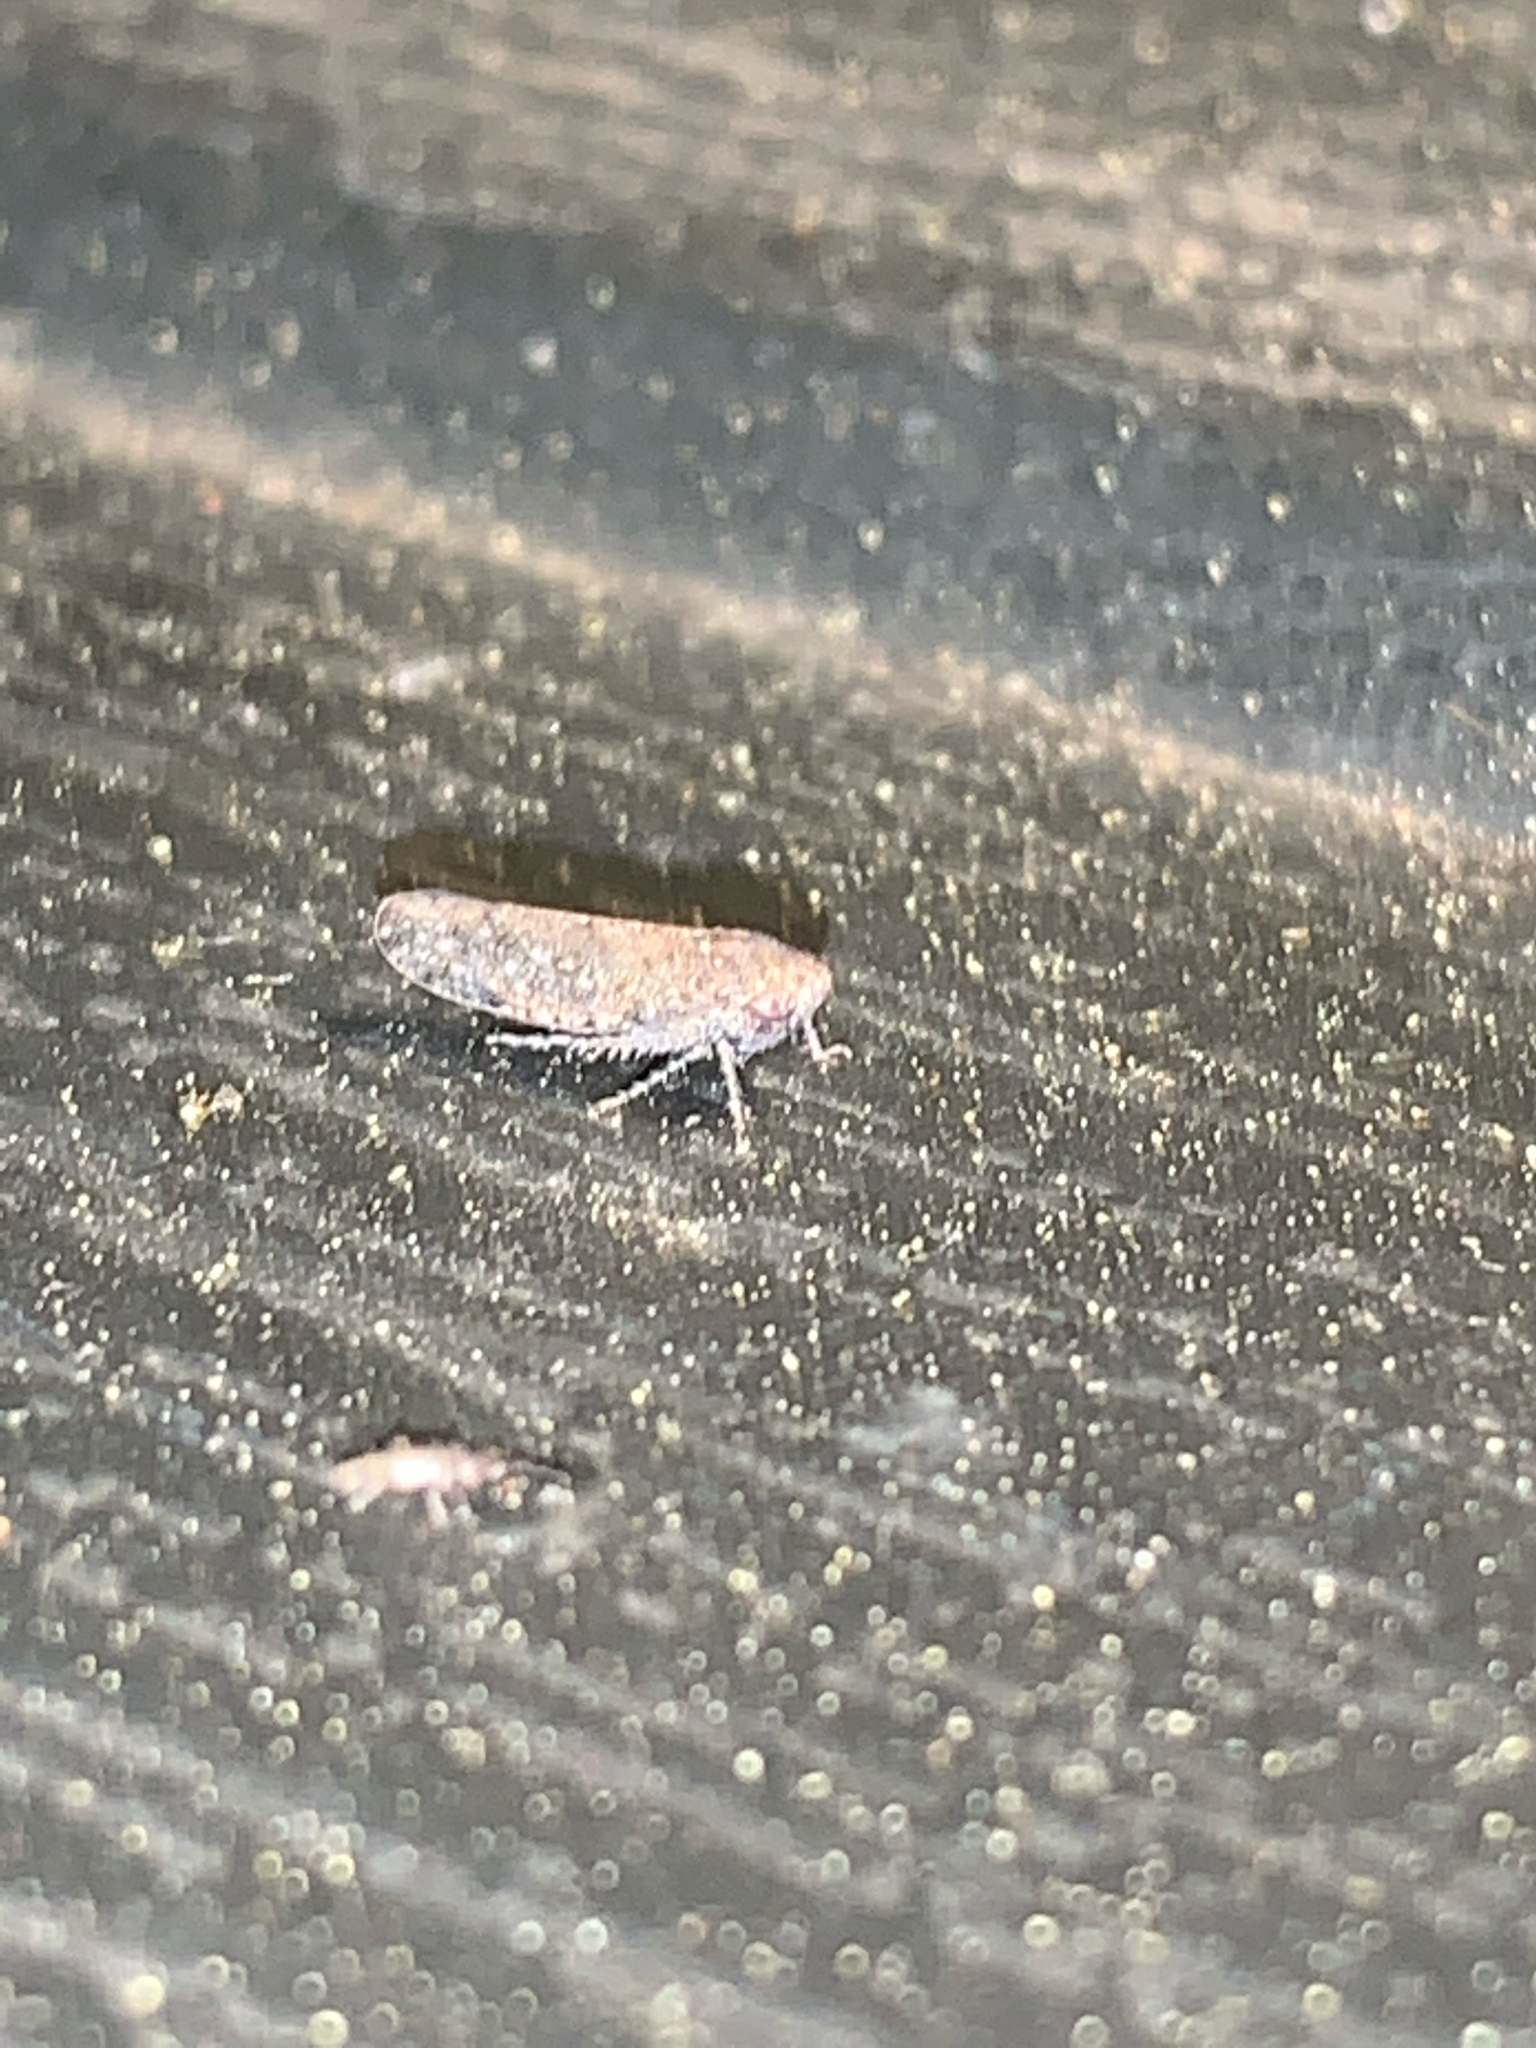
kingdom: Animalia
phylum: Arthropoda
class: Insecta
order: Hemiptera
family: Cicadellidae
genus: Paraphlepsius
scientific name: Paraphlepsius
